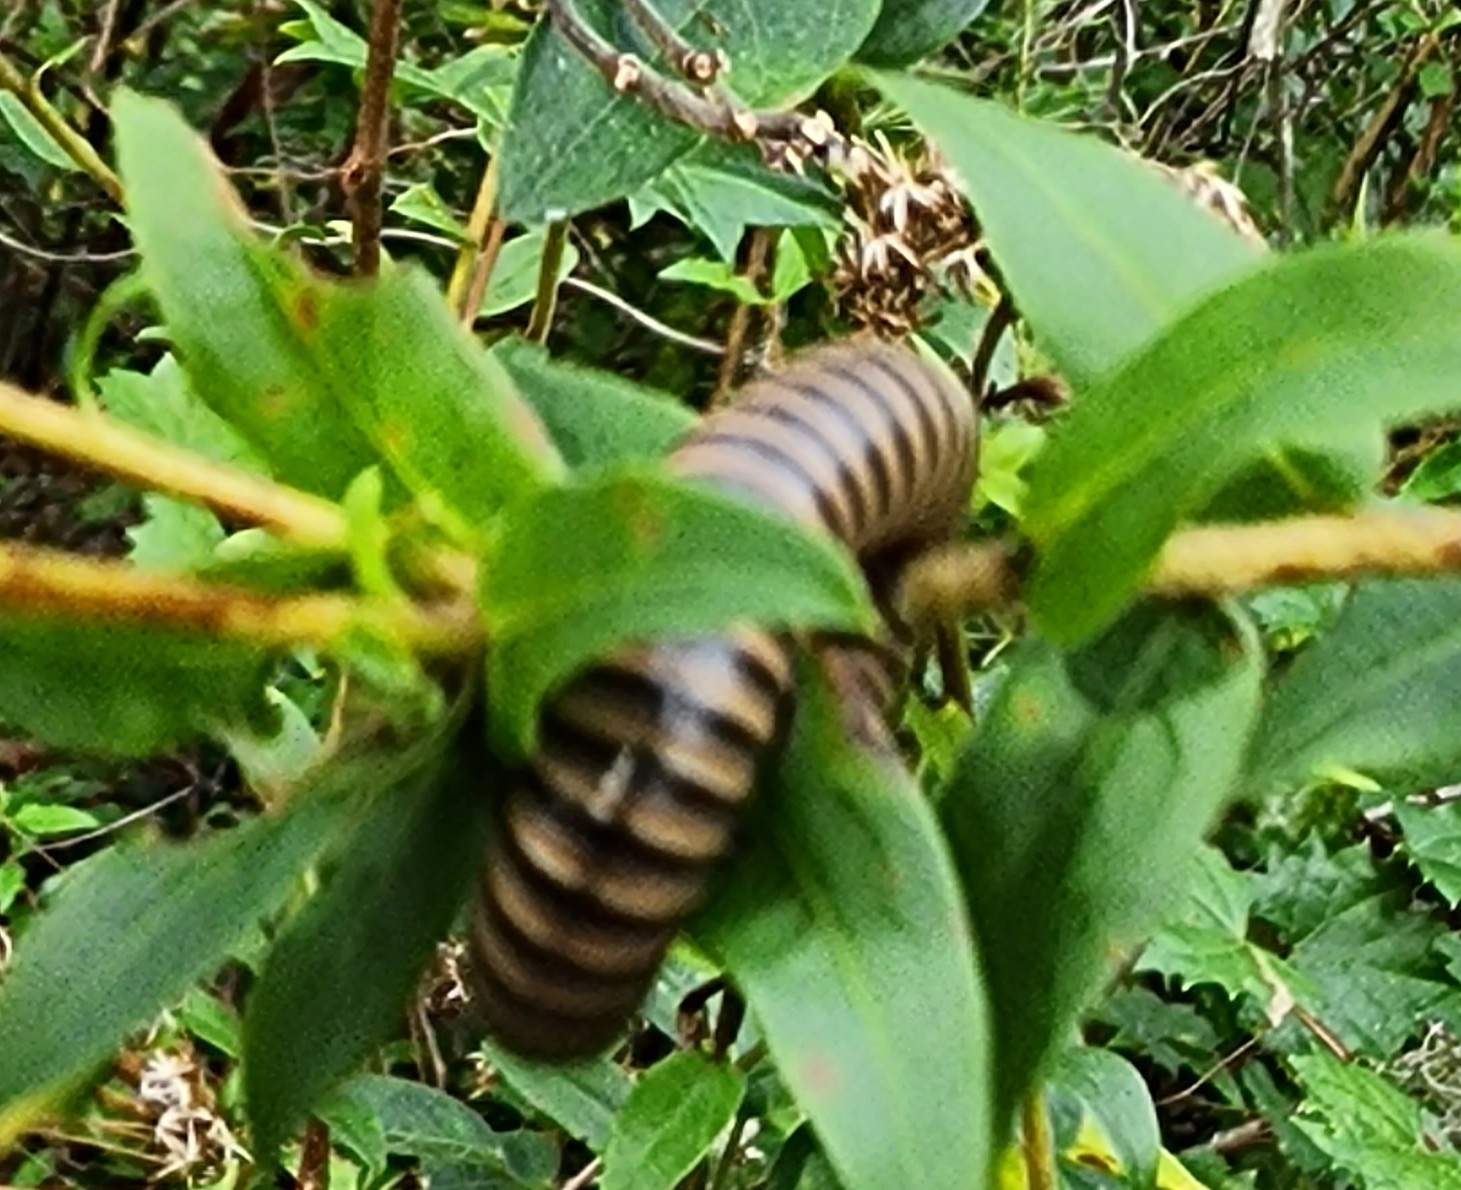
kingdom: Animalia
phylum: Arthropoda
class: Diplopoda
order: Spirobolida
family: Spirobolidae
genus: Chicobolus
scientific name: Chicobolus spinigerus
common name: Florida ivory millipede
